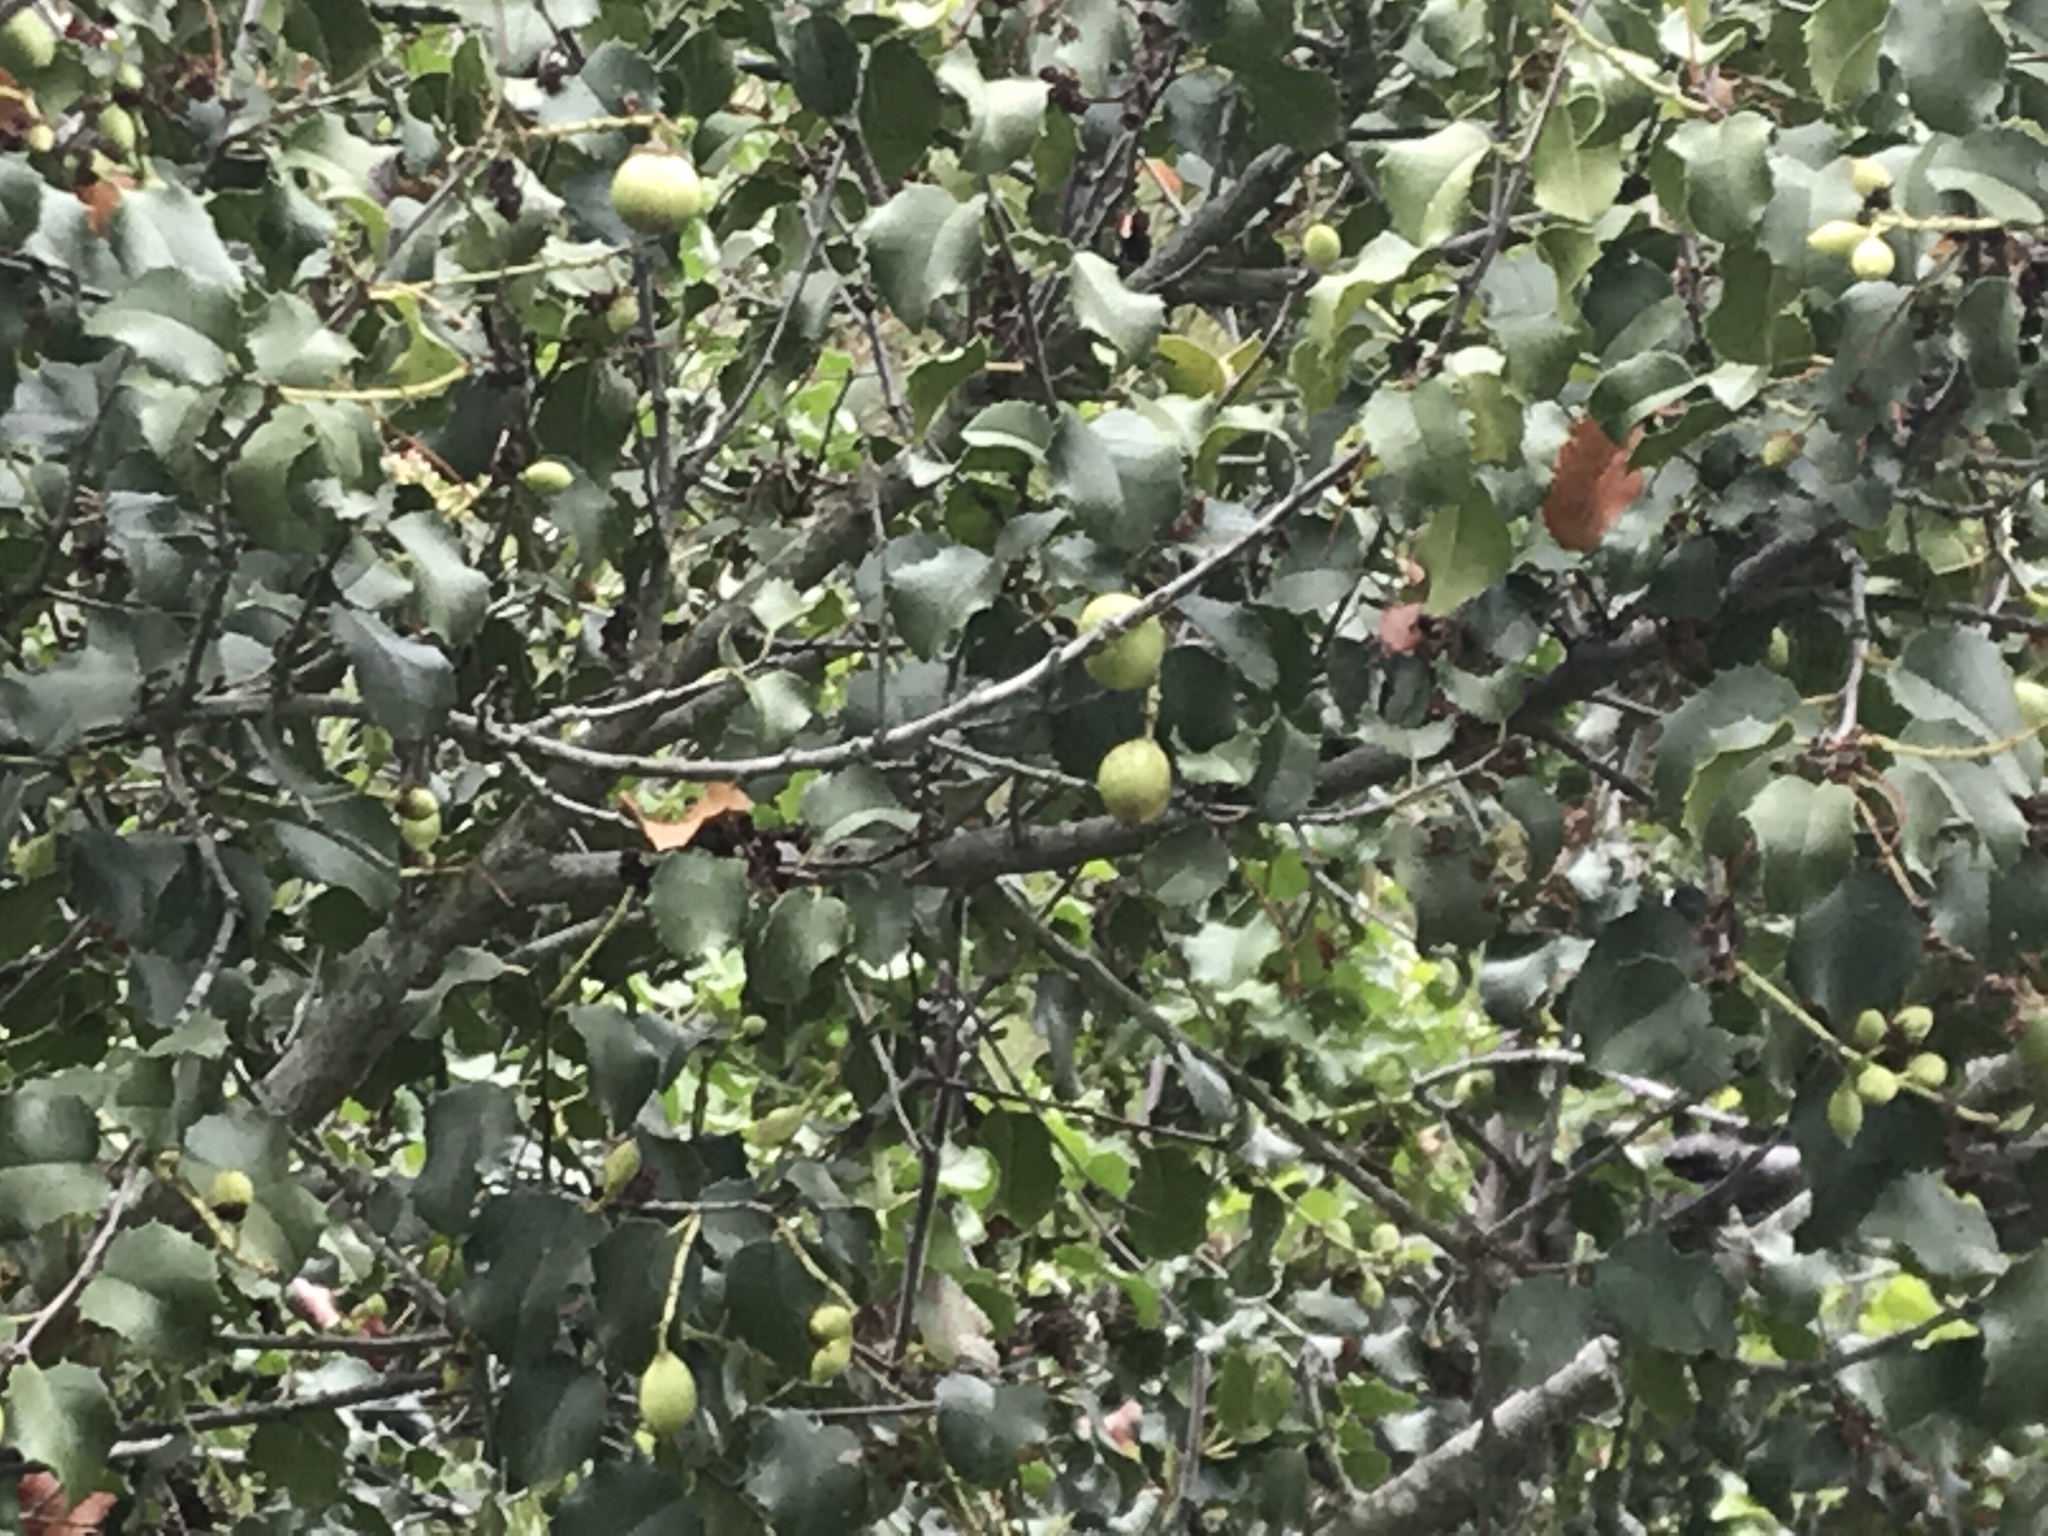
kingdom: Plantae
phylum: Tracheophyta
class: Magnoliopsida
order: Rosales
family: Rosaceae
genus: Prunus
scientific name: Prunus ilicifolia
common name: Hollyleaf cherry
